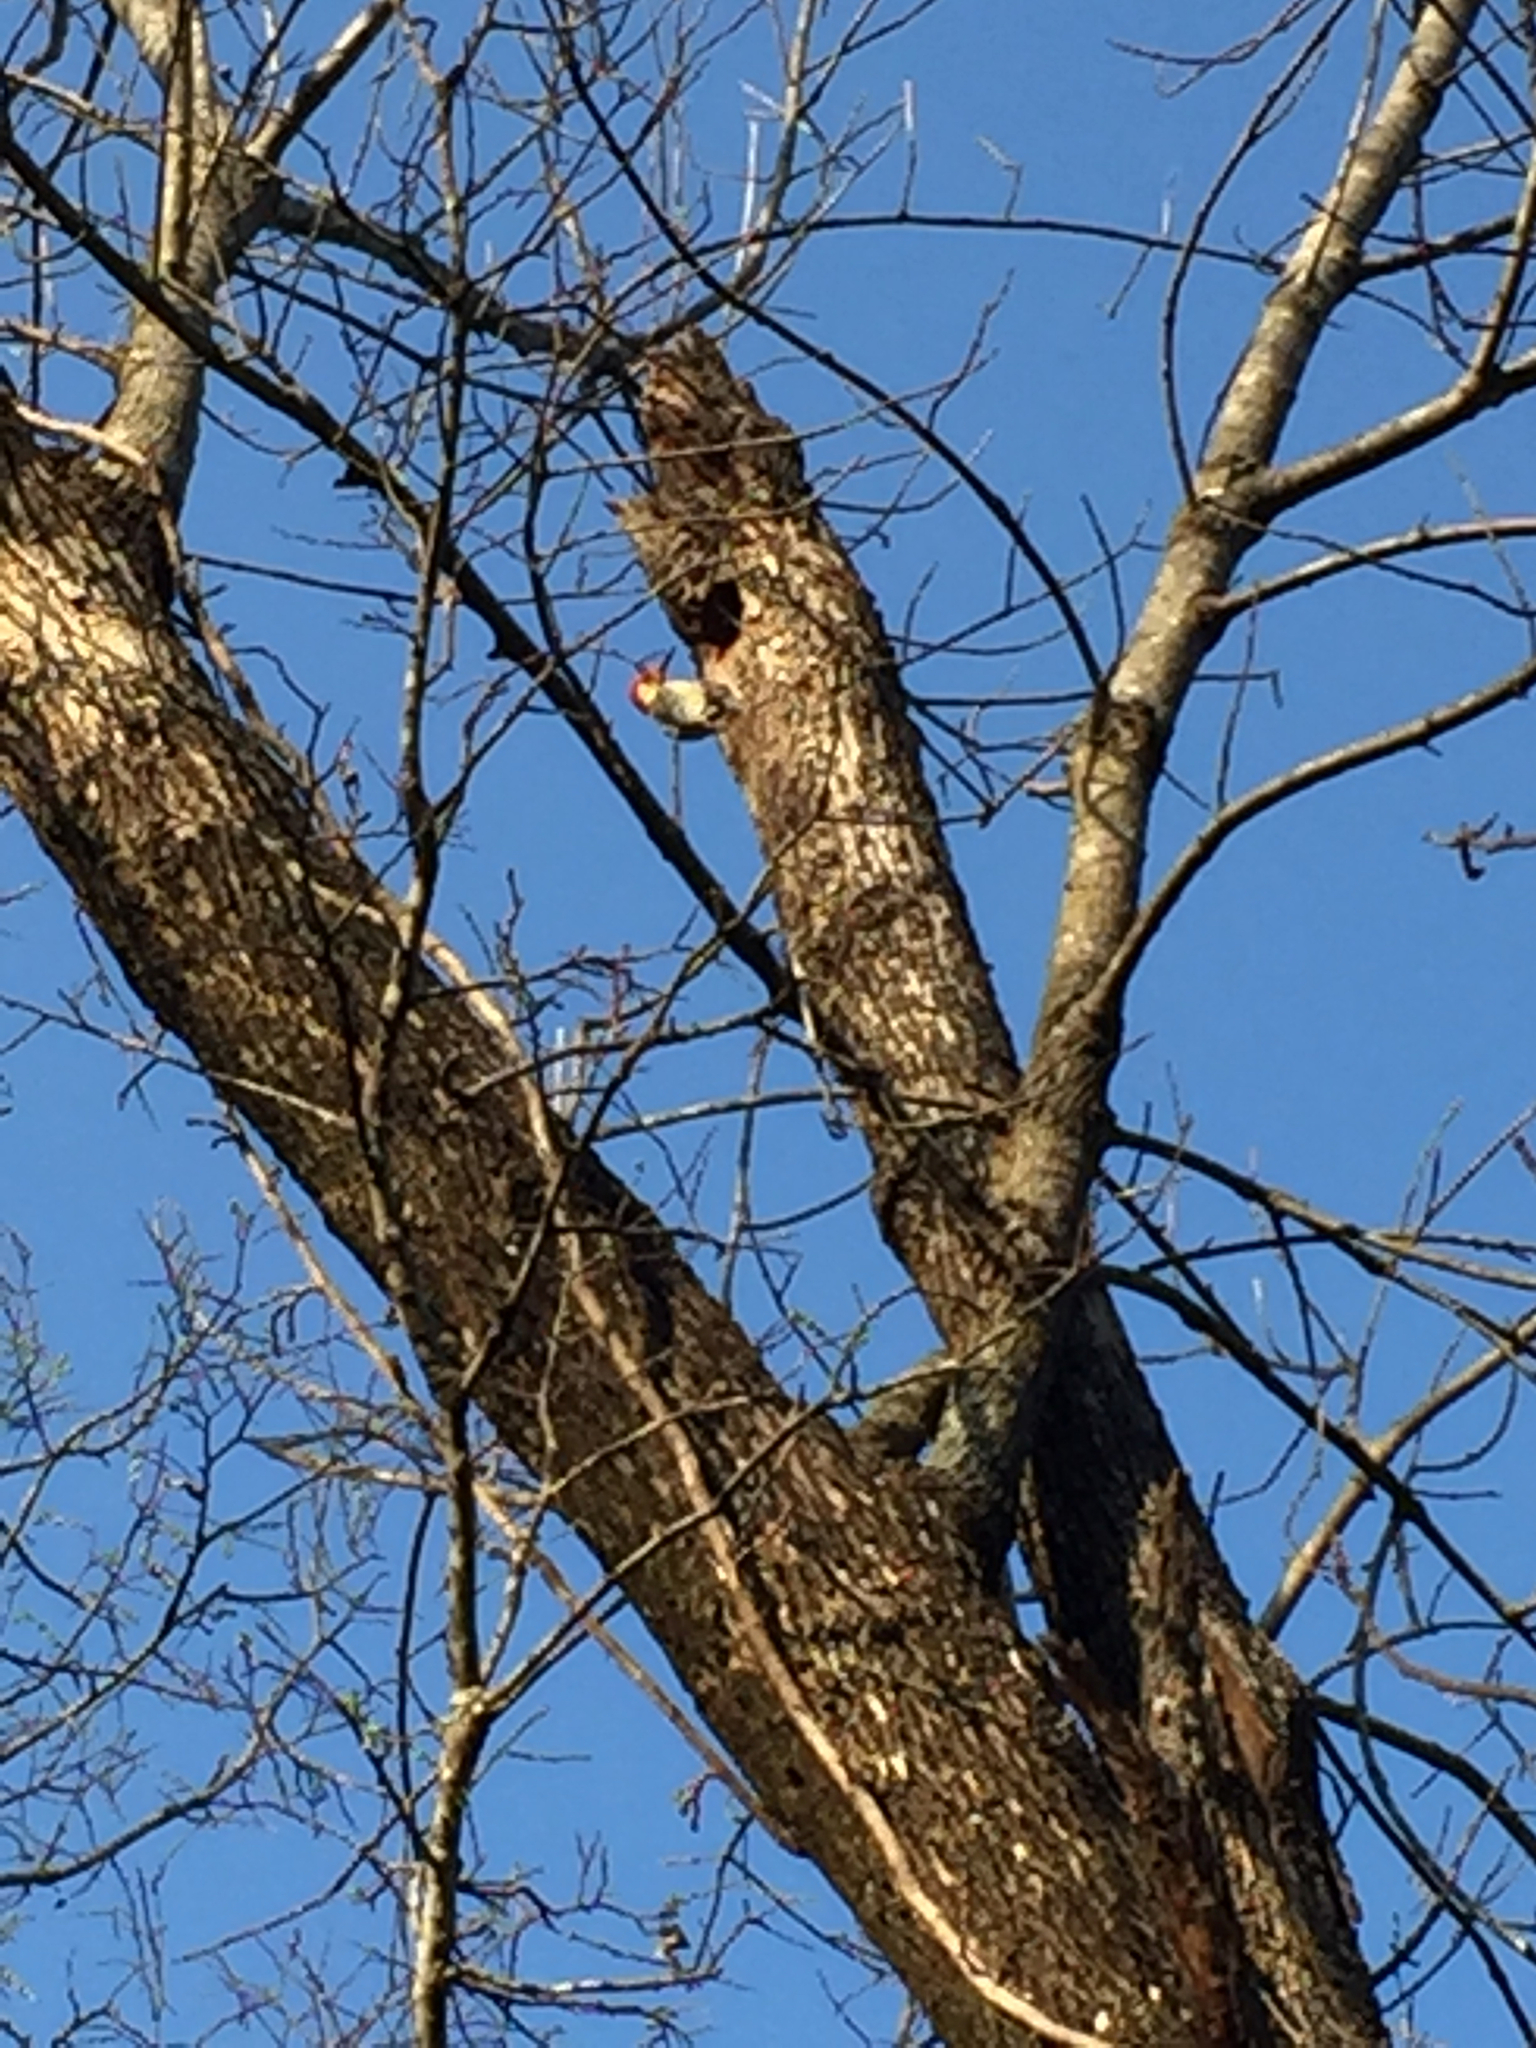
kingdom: Animalia
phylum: Chordata
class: Aves
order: Piciformes
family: Picidae
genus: Melanerpes
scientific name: Melanerpes carolinus
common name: Red-bellied woodpecker
